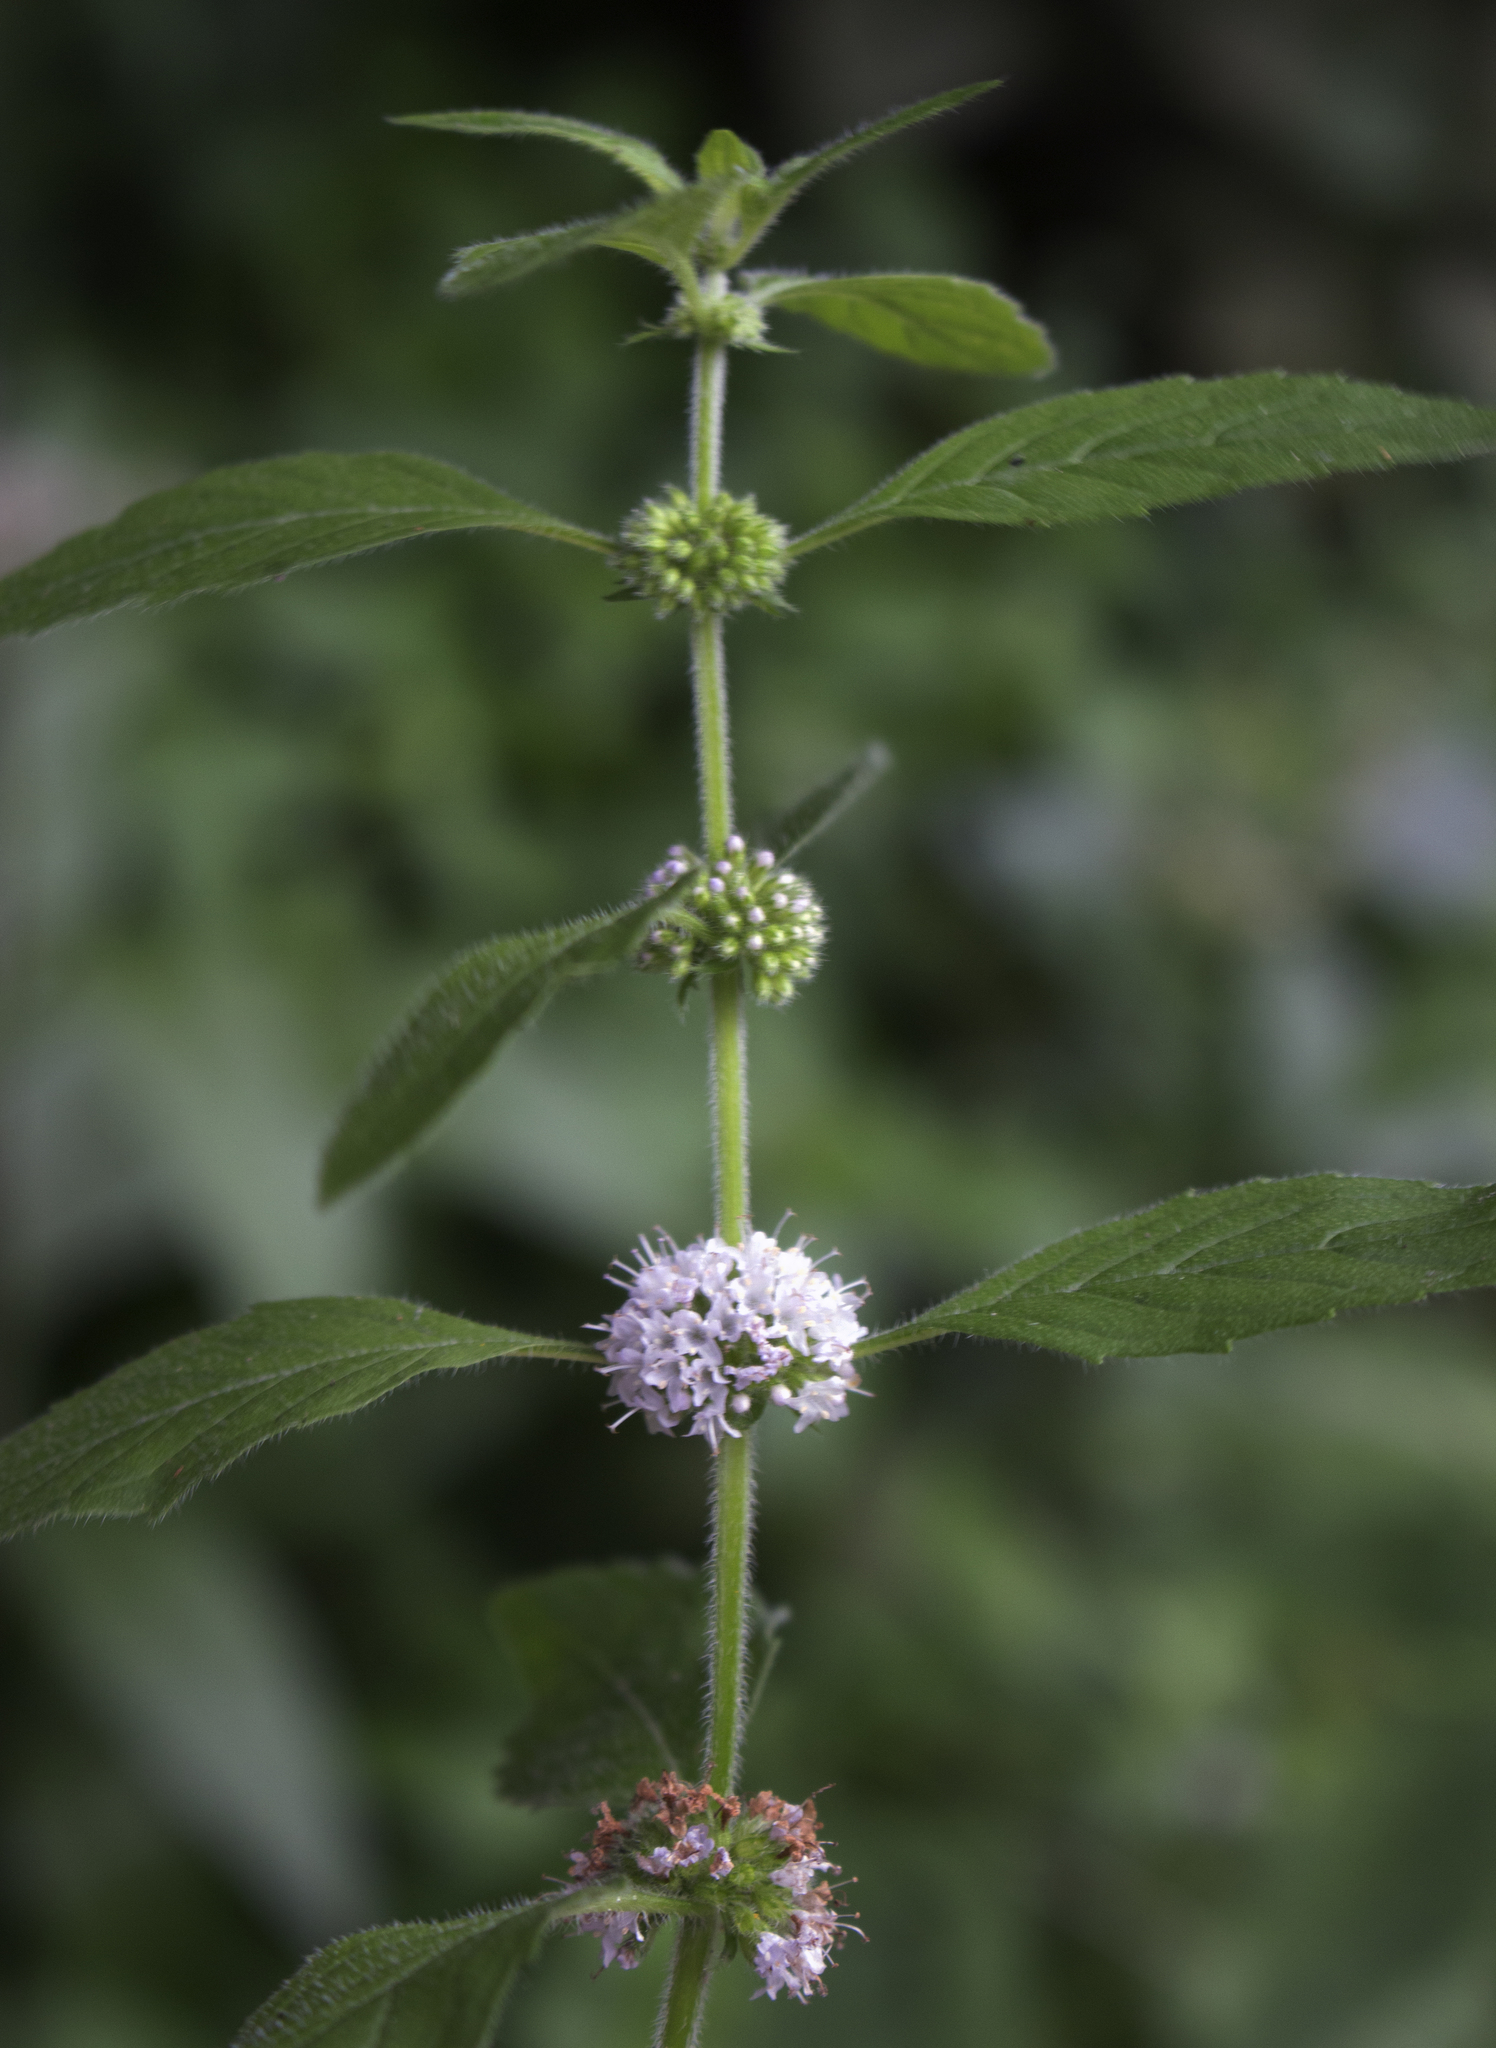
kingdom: Plantae
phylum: Tracheophyta
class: Magnoliopsida
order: Lamiales
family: Lamiaceae
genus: Mentha
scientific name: Mentha canadensis
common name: American corn mint
